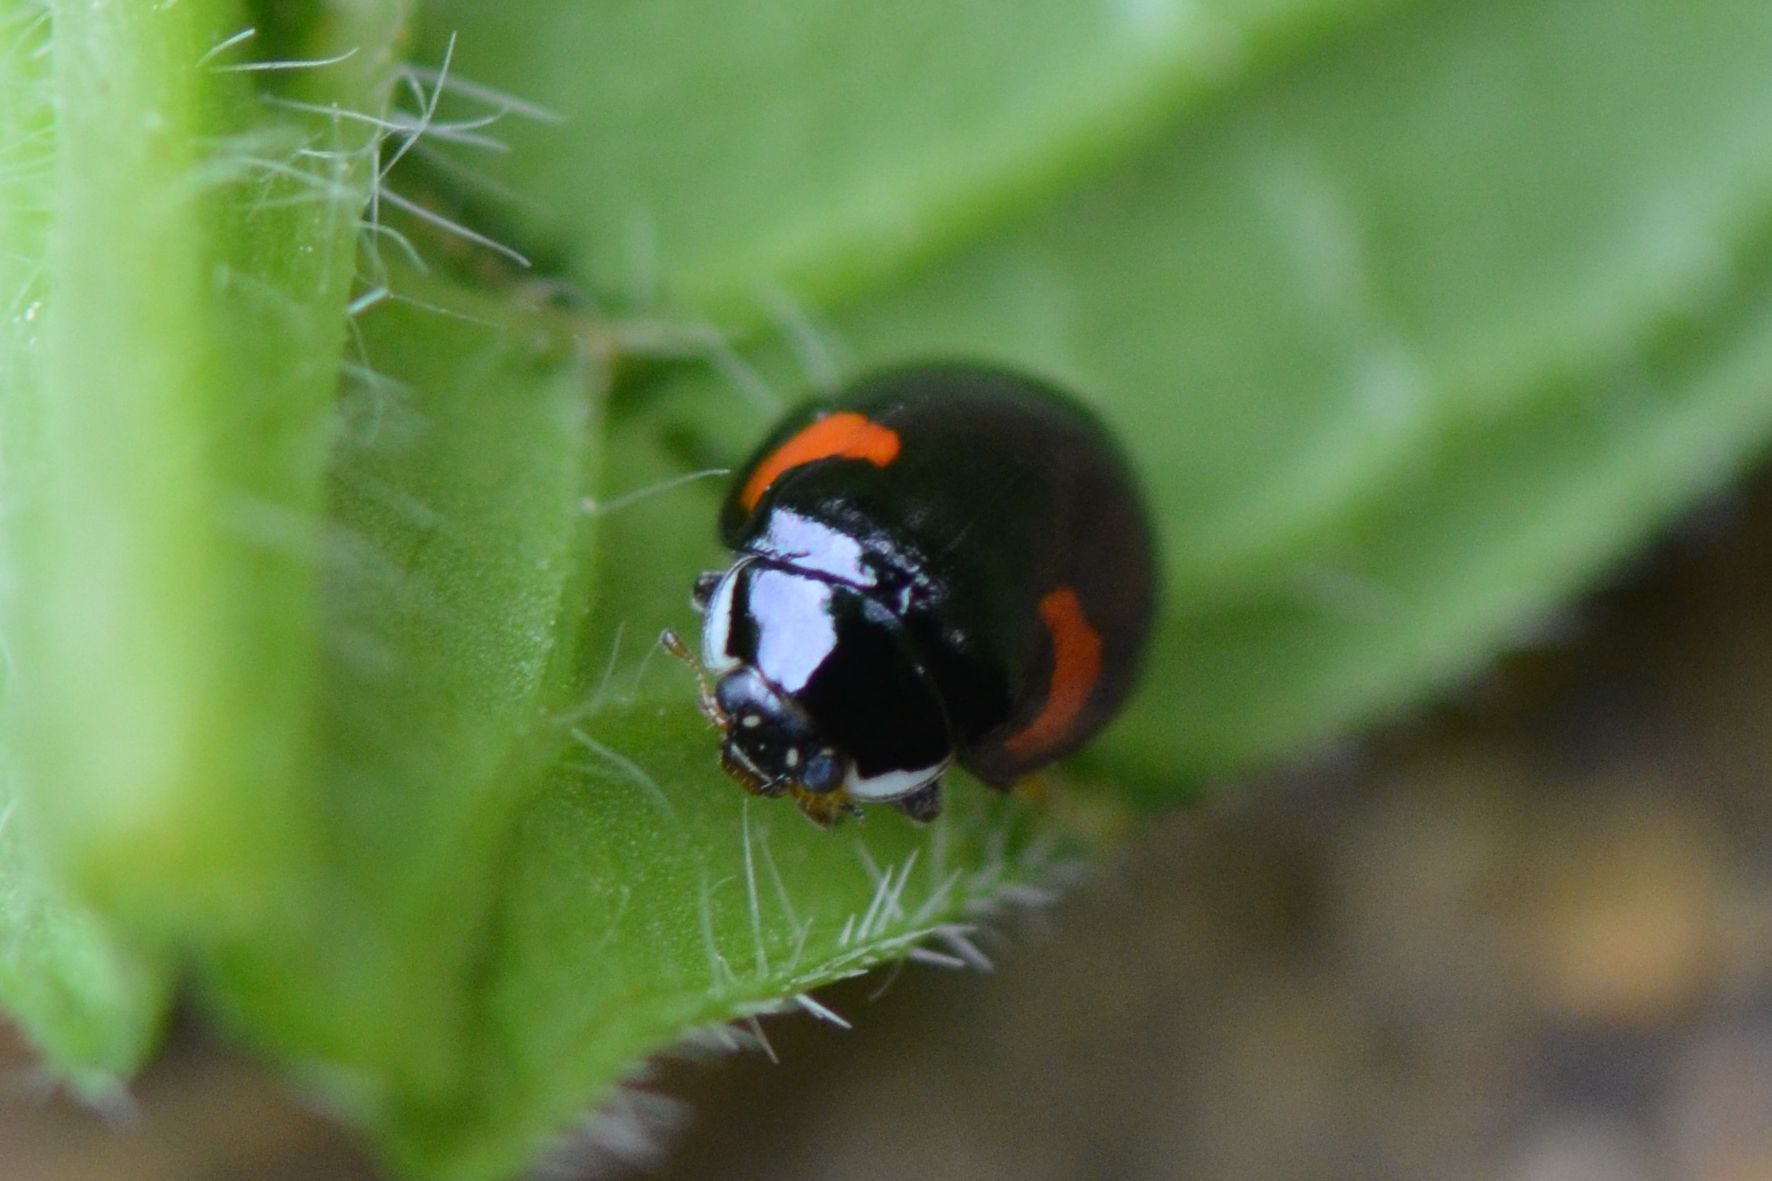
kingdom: Animalia
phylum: Arthropoda
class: Insecta
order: Coleoptera
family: Coccinellidae
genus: Adalia
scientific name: Adalia decempunctata
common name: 10-spot ladybird
